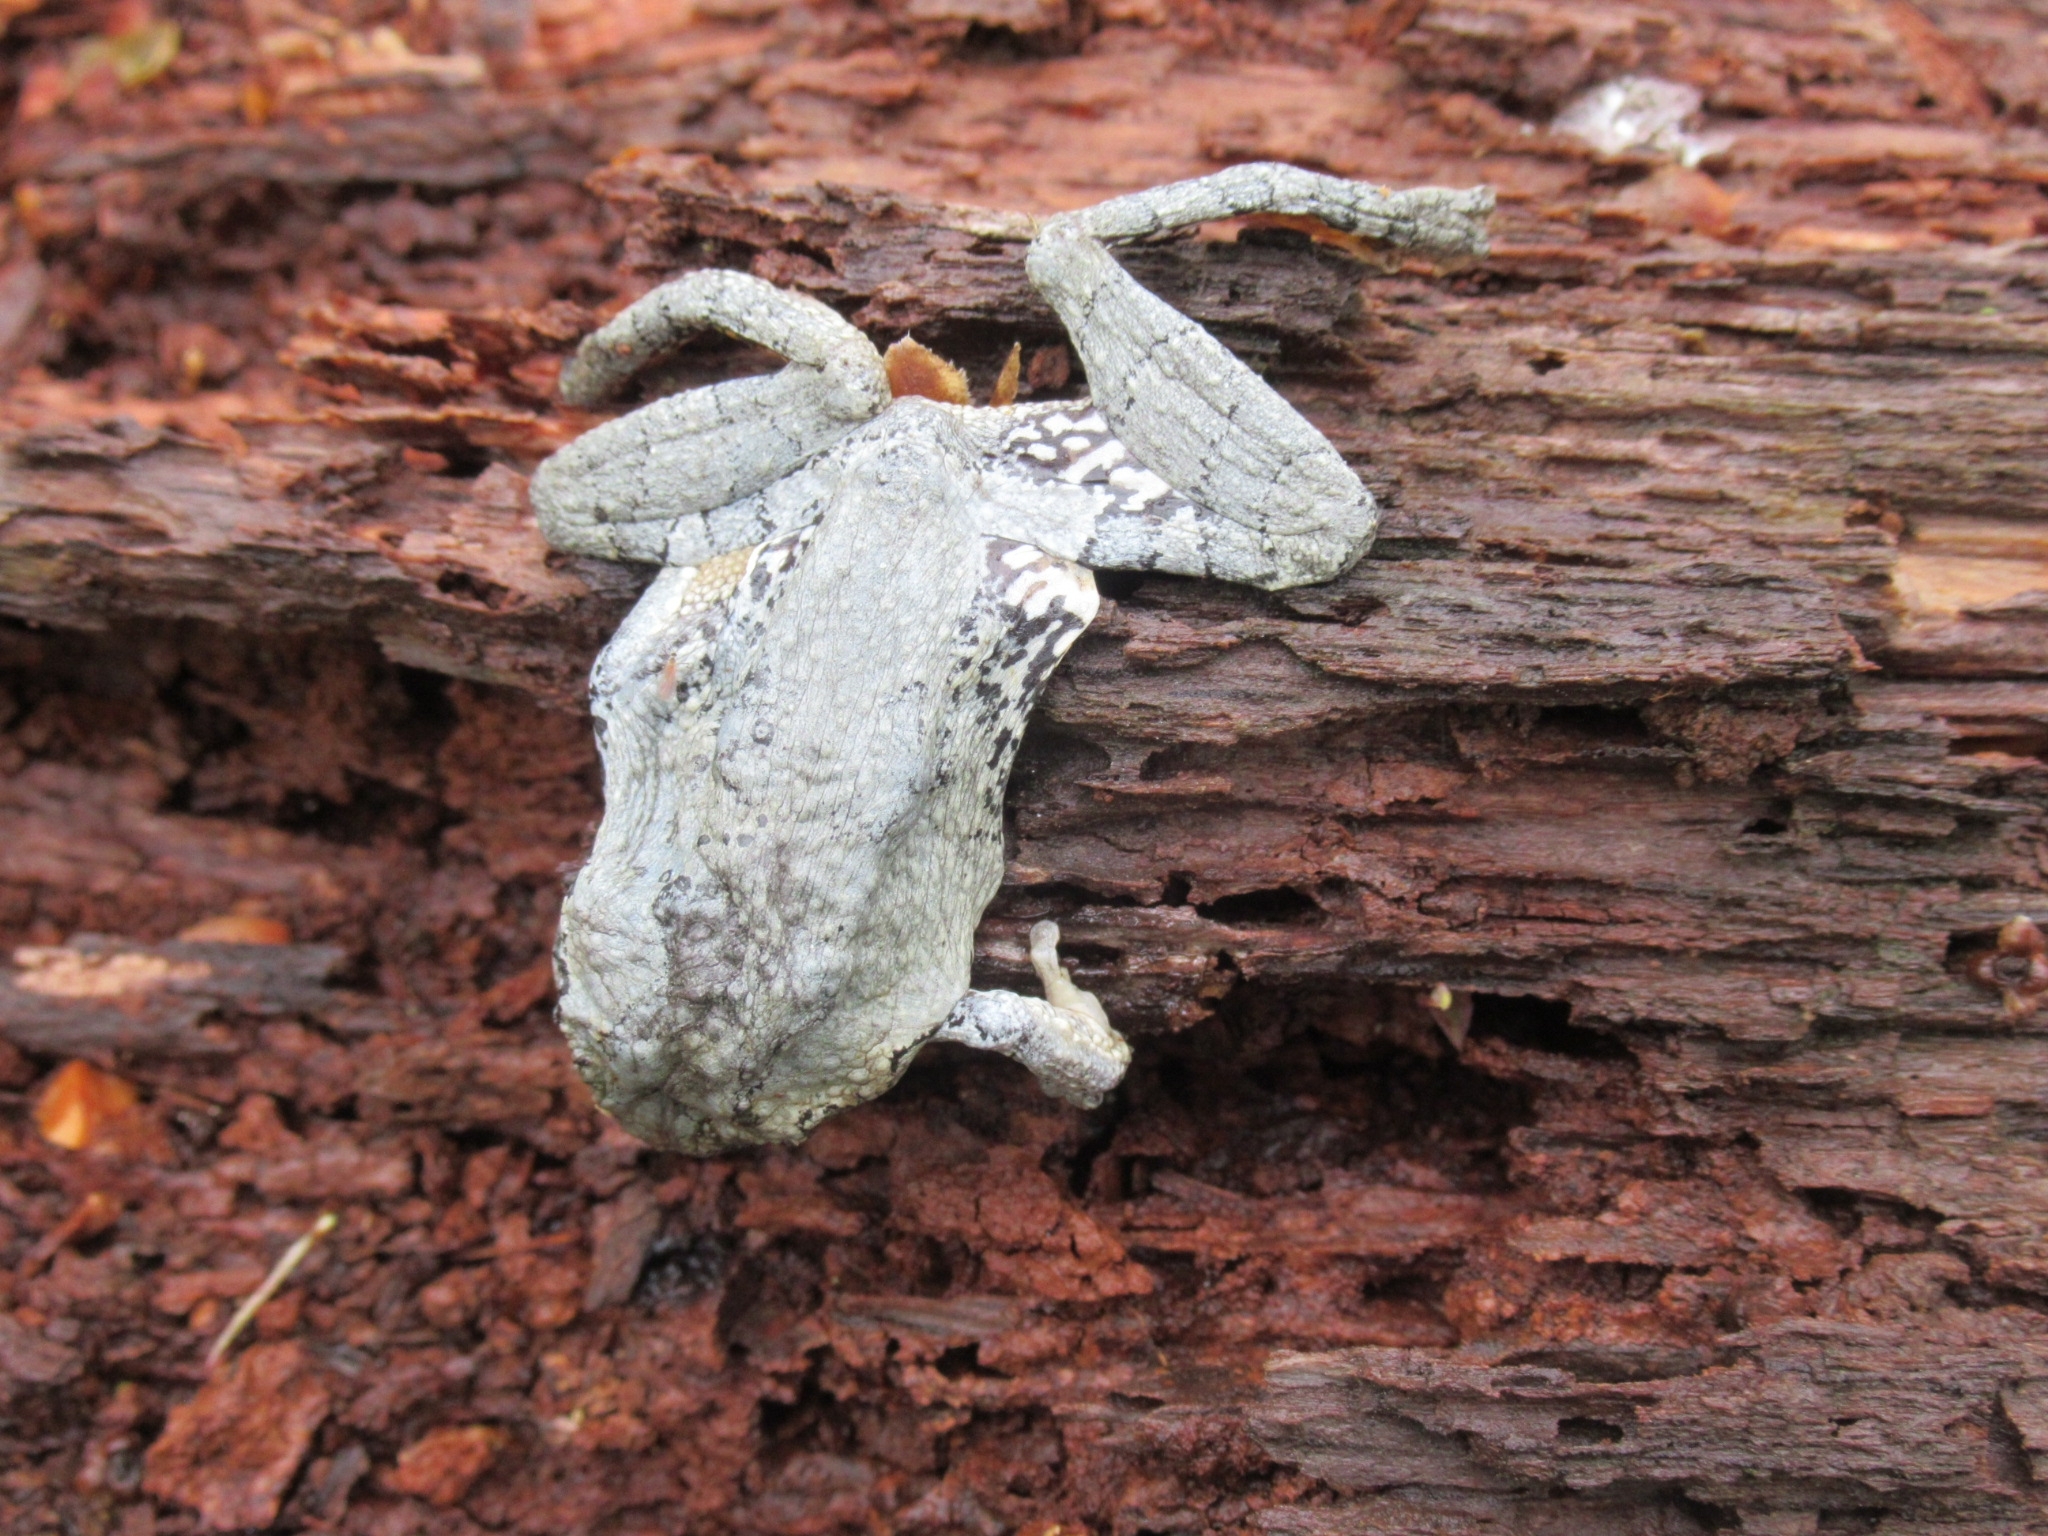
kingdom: Animalia
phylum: Chordata
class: Amphibia
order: Anura
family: Hylidae
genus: Hyla
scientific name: Hyla
